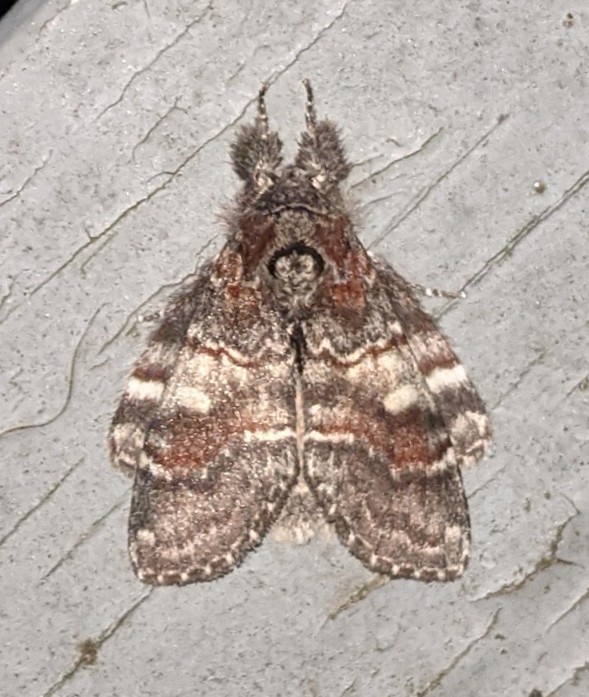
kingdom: Animalia
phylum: Arthropoda
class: Insecta
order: Lepidoptera
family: Notodontidae
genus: Peridea
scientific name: Peridea ferruginea
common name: Chocolate prominent
